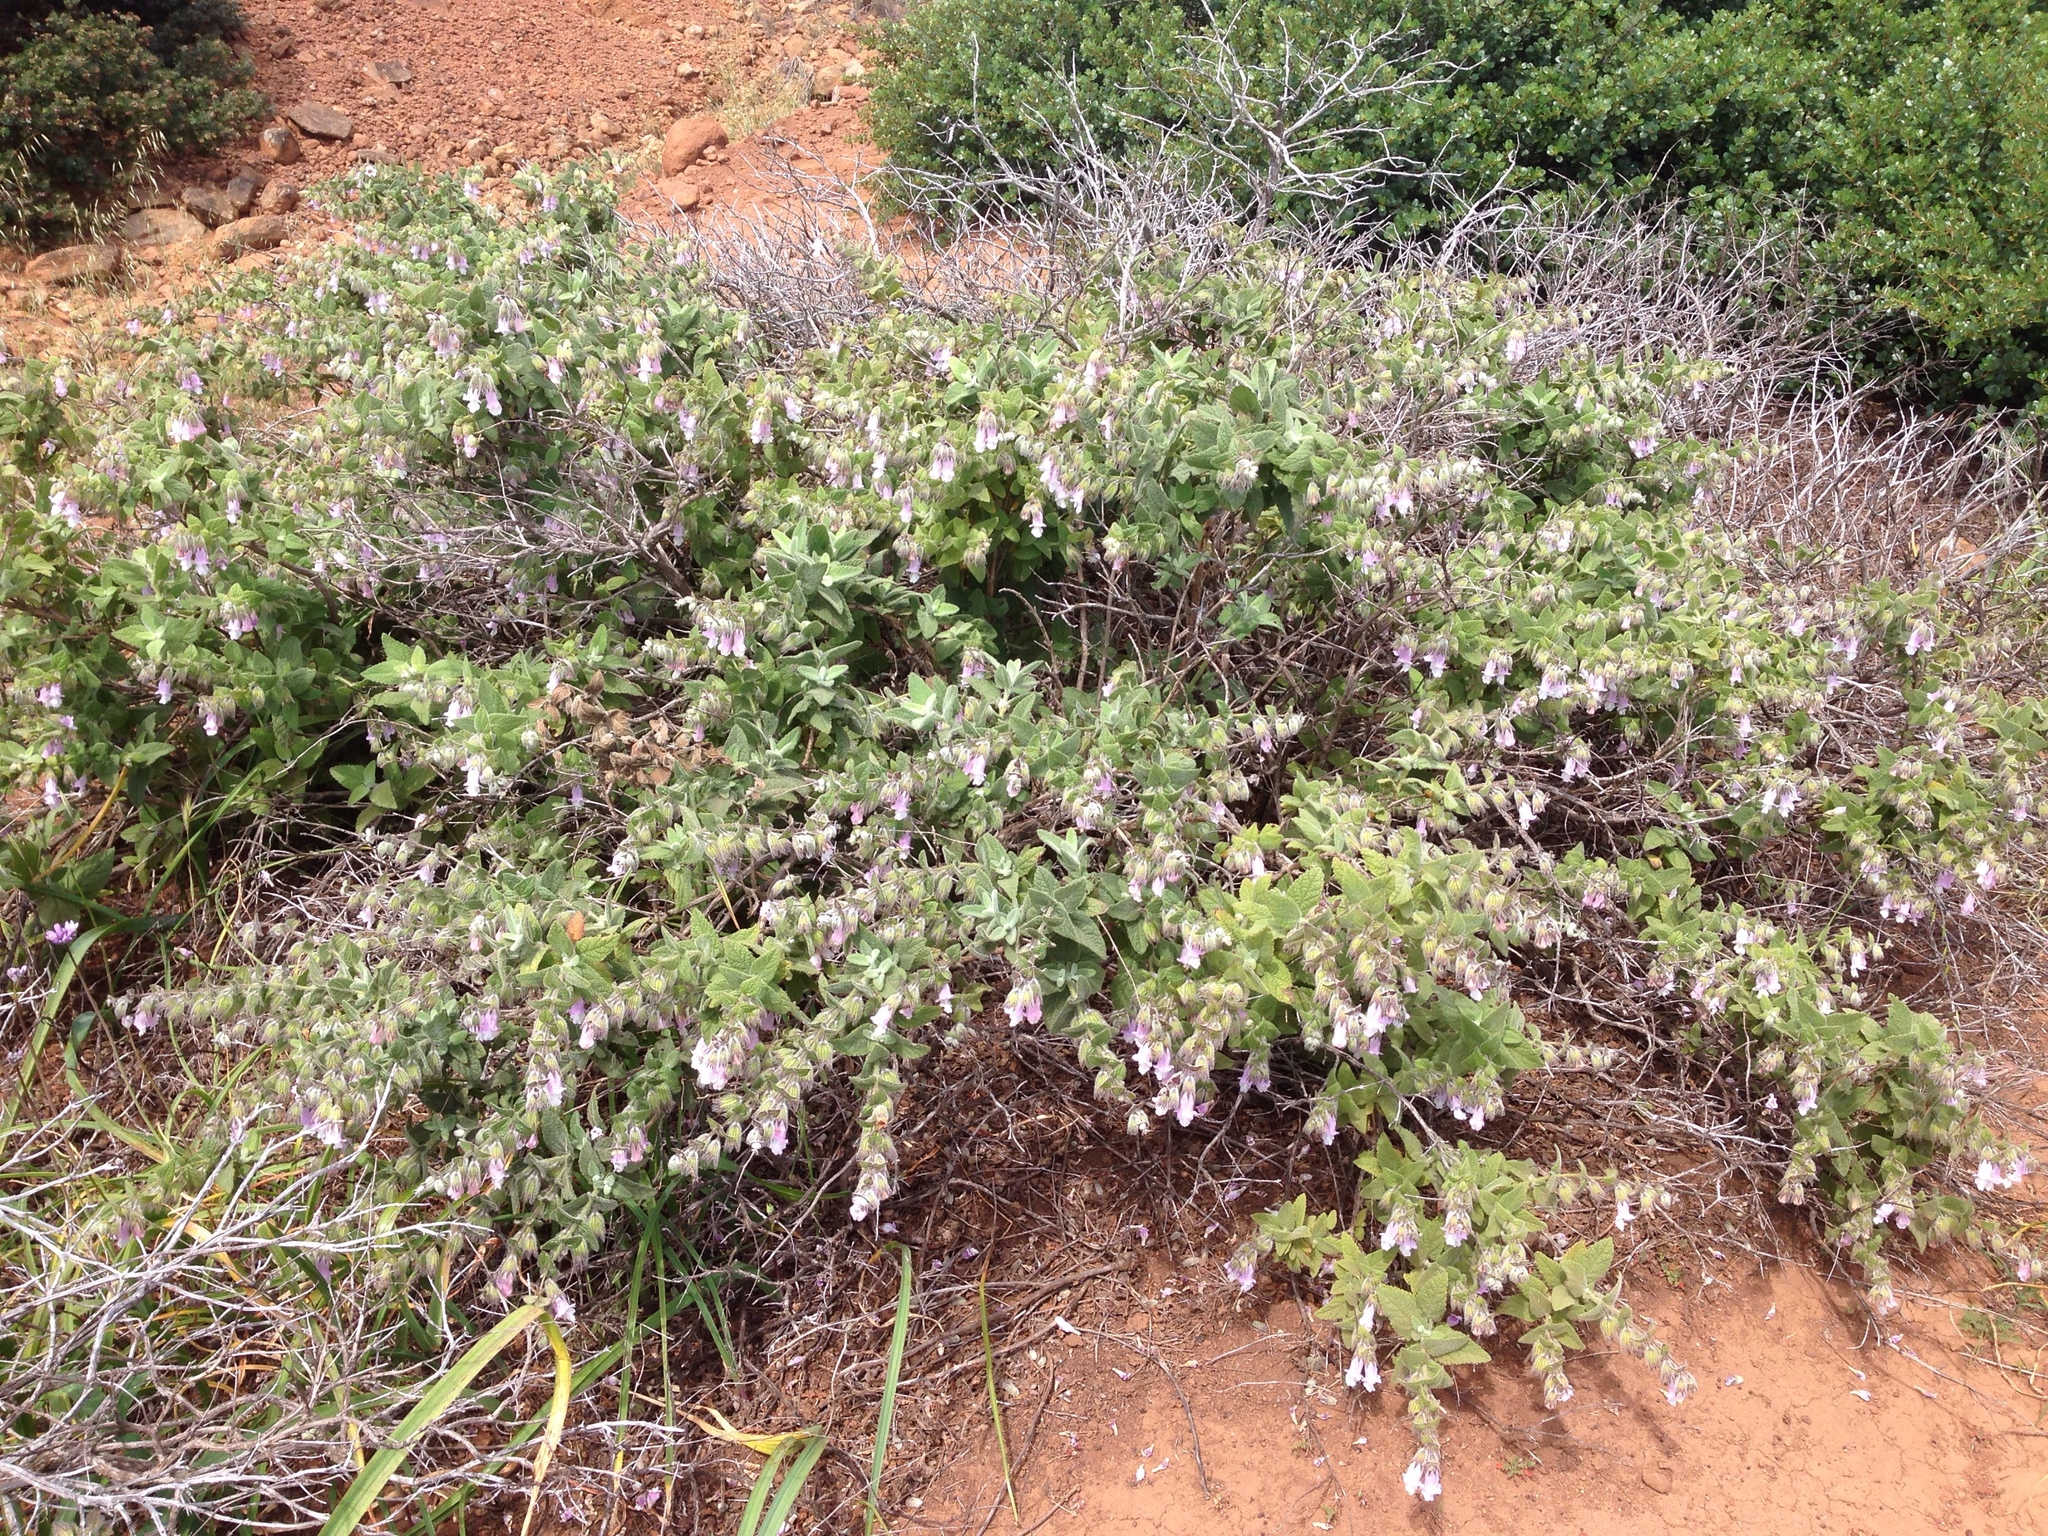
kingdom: Plantae
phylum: Tracheophyta
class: Magnoliopsida
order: Lamiales
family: Lamiaceae
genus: Lepechinia
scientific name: Lepechinia fragrans
